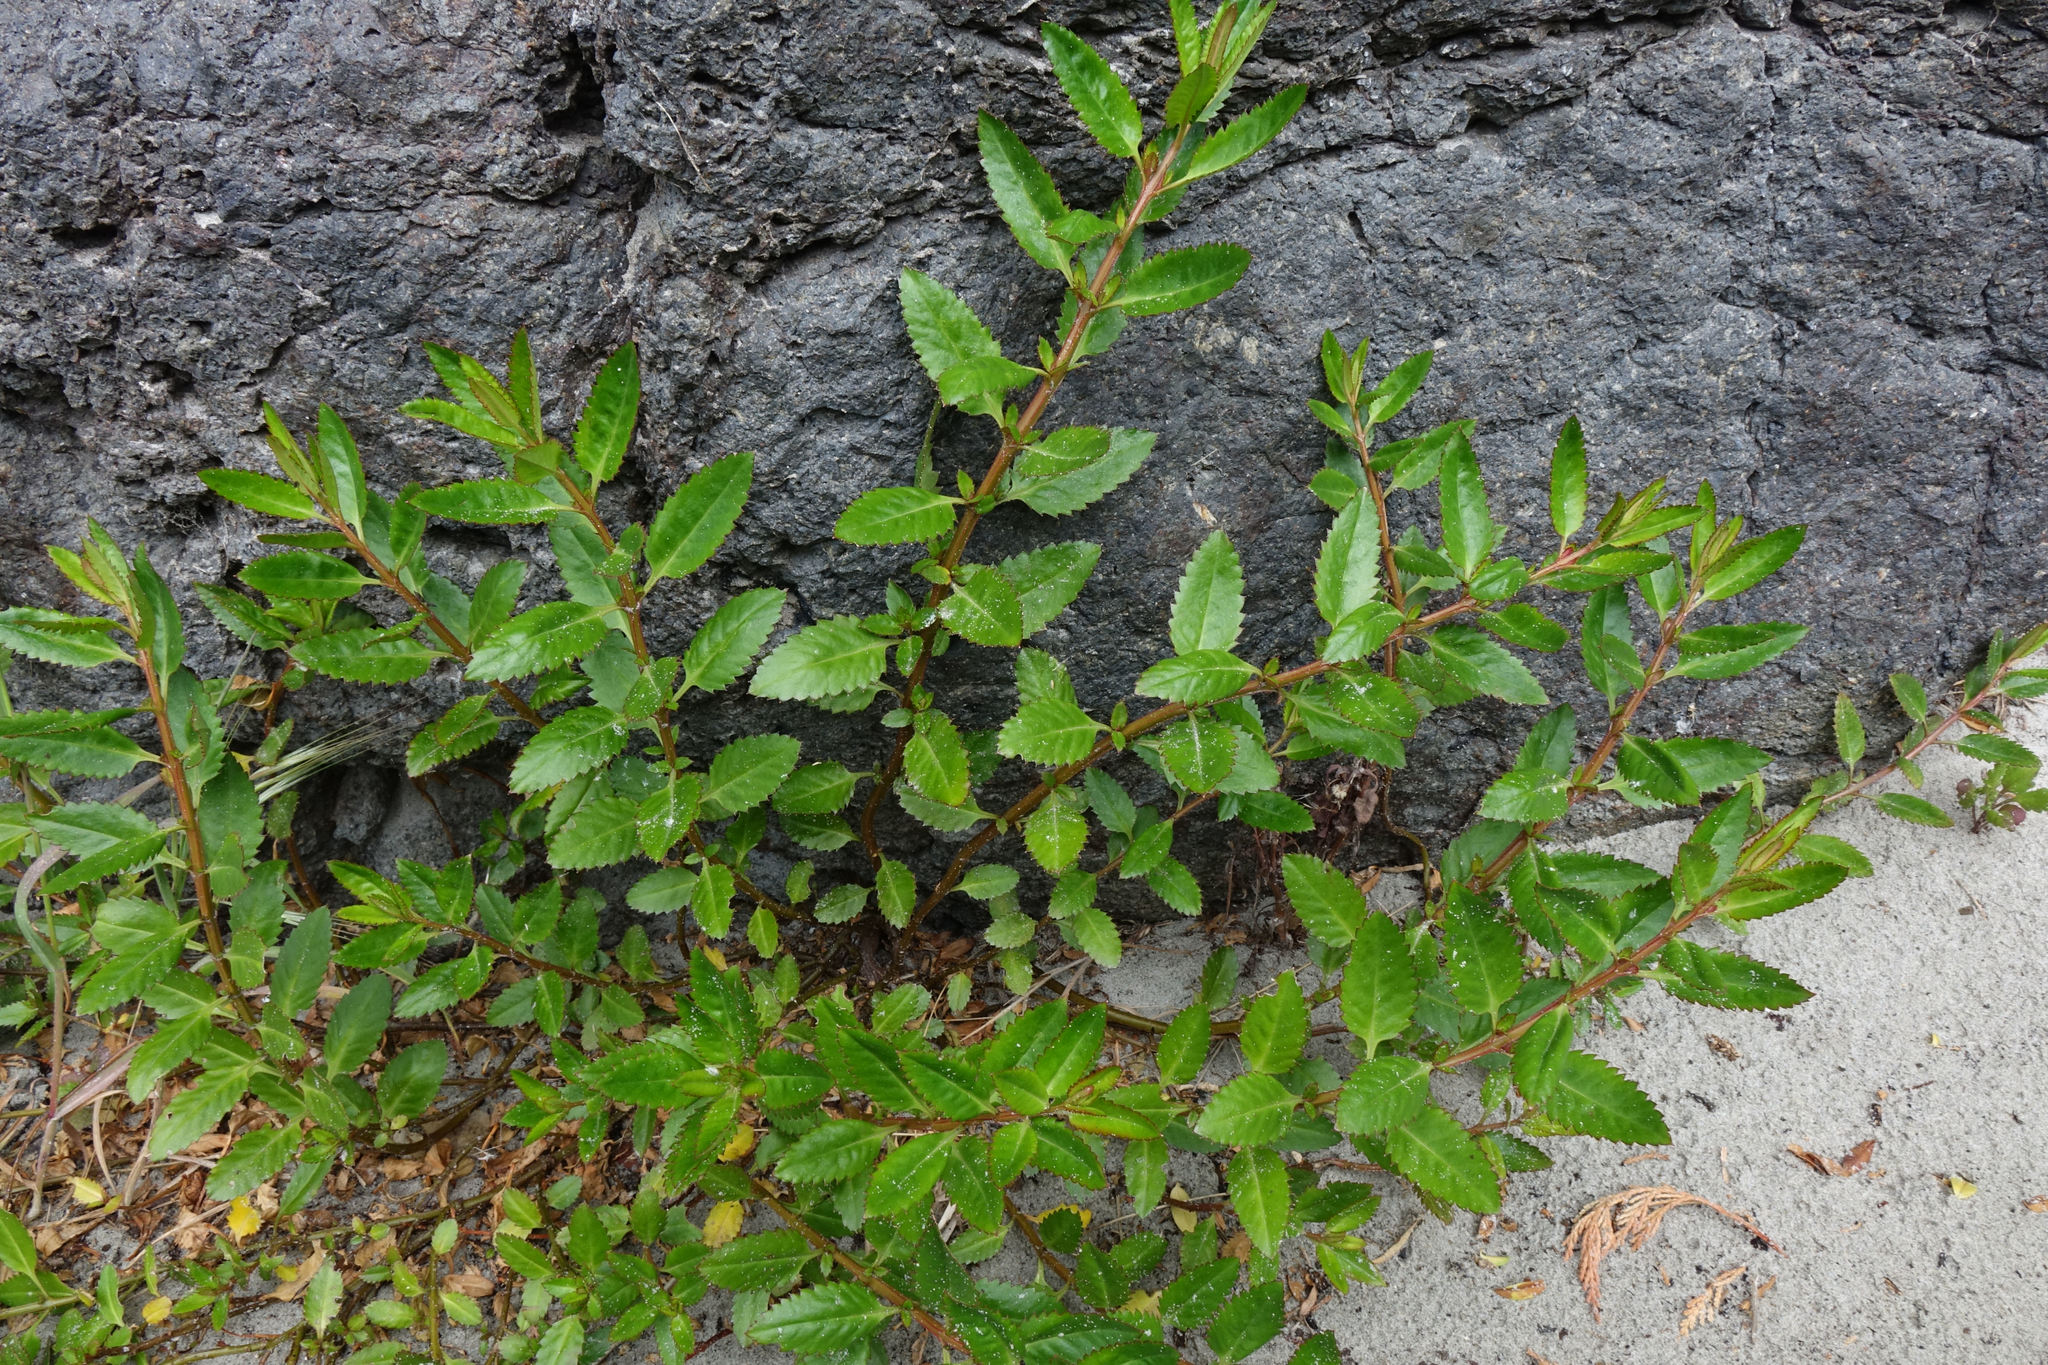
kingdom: Plantae
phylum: Tracheophyta
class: Magnoliopsida
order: Saxifragales
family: Haloragaceae
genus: Haloragis
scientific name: Haloragis erecta
